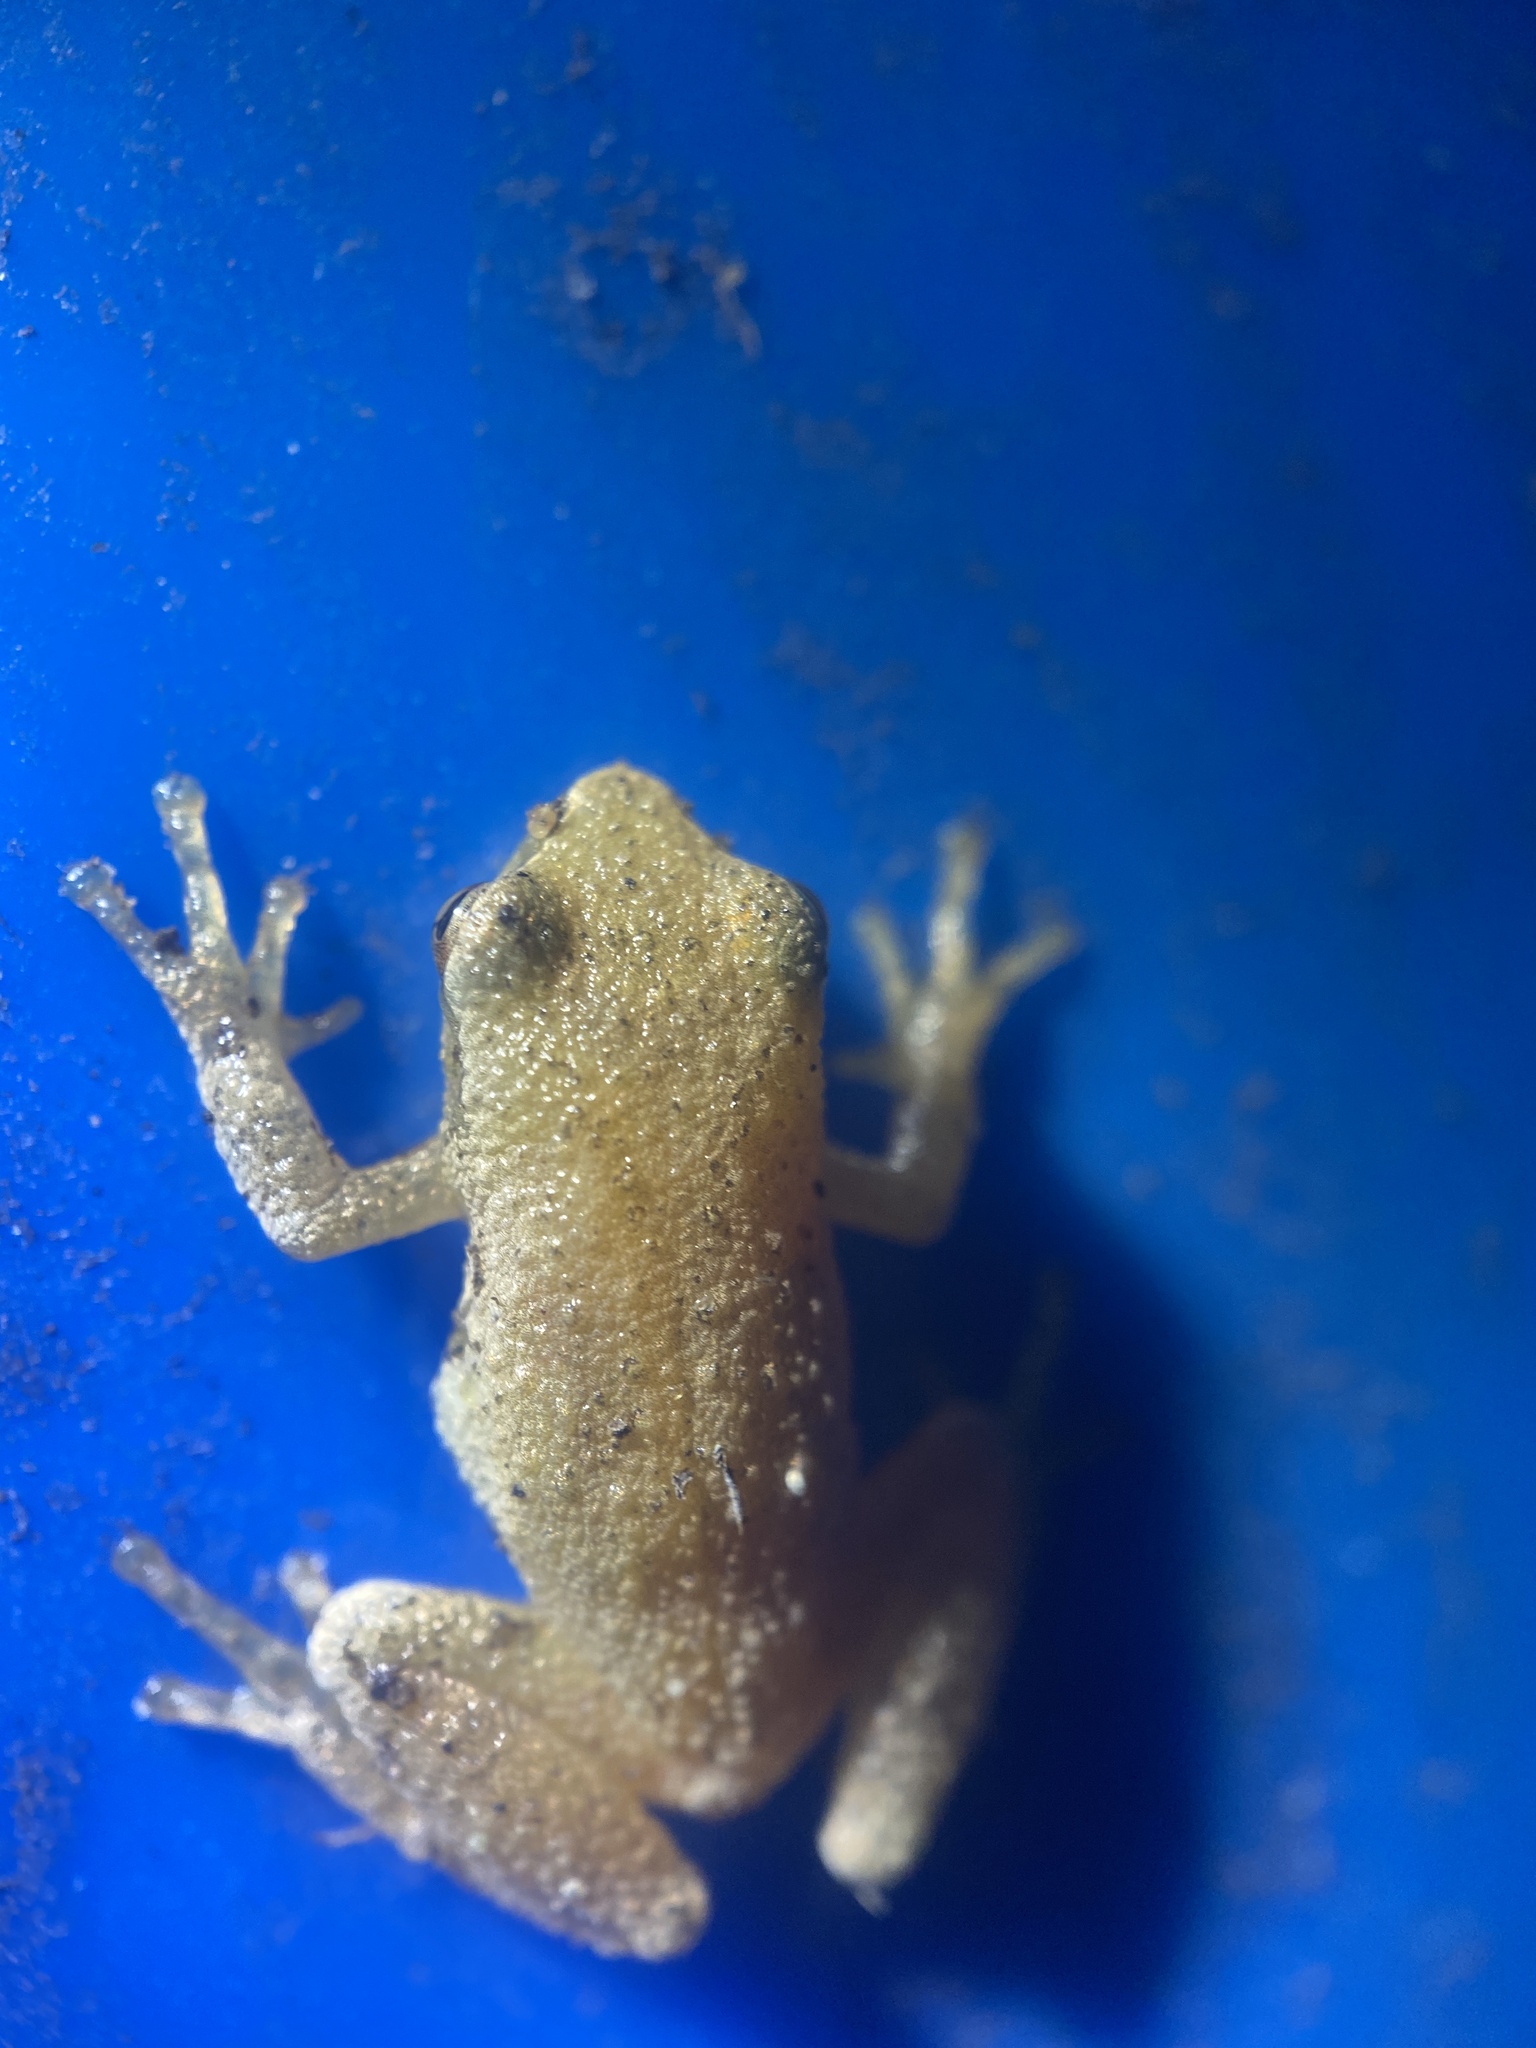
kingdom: Animalia
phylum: Chordata
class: Amphibia
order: Anura
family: Hylidae
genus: Pseudacris
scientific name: Pseudacris crucifer
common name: Spring peeper
